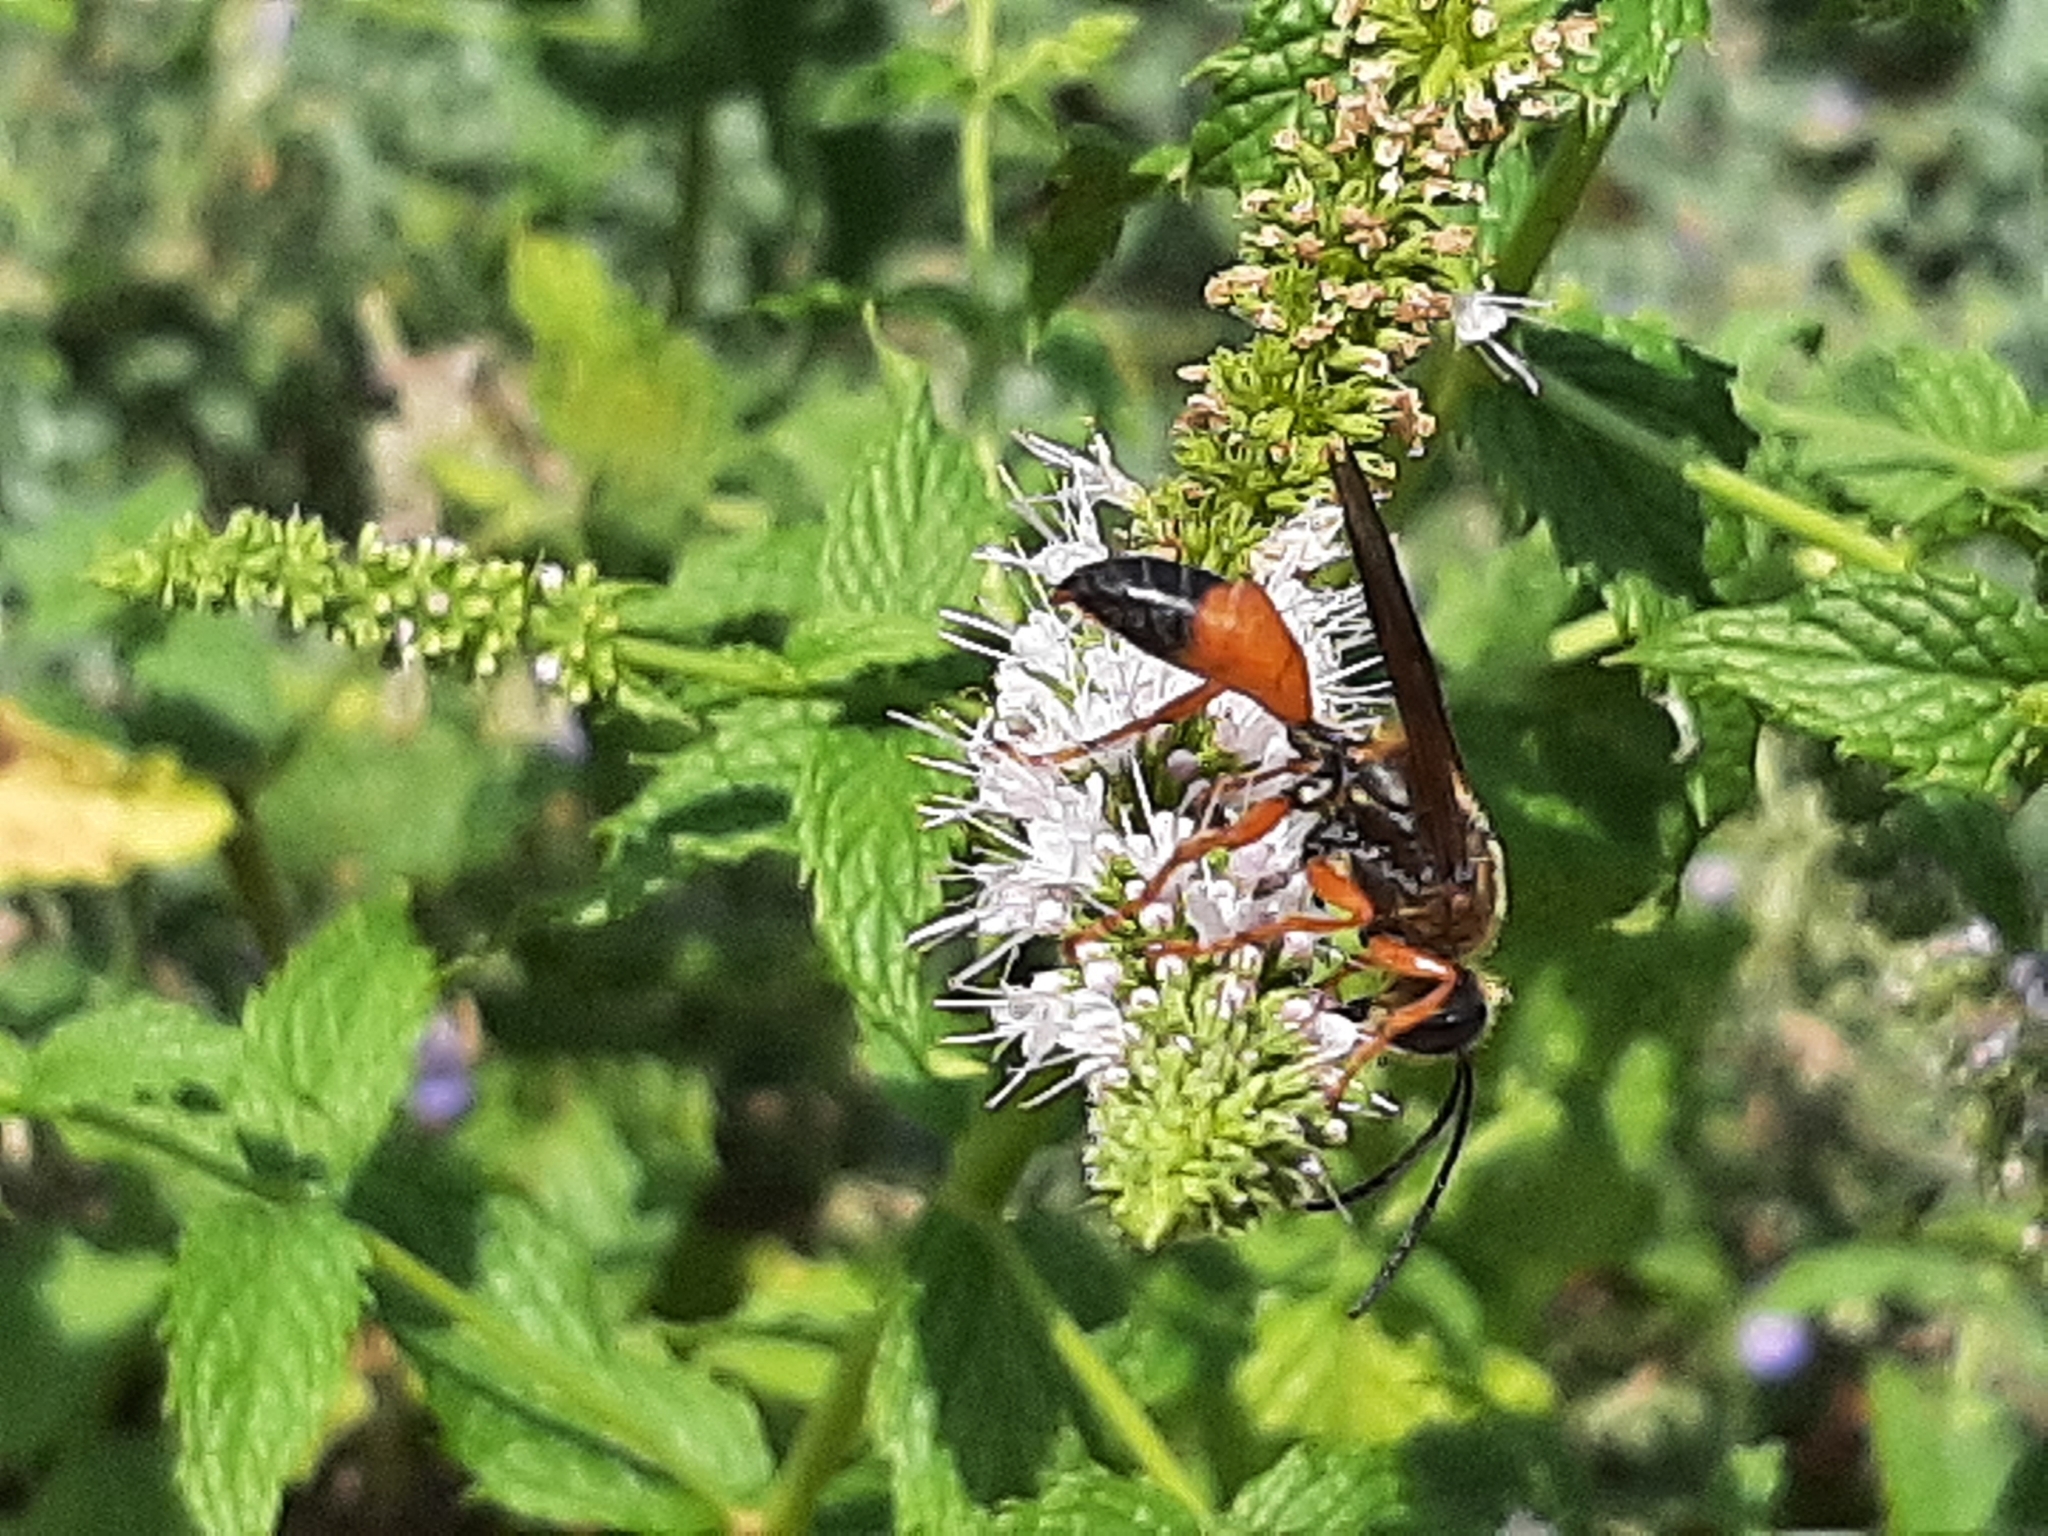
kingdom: Animalia
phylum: Arthropoda
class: Insecta
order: Hymenoptera
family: Sphecidae
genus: Sphex
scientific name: Sphex ichneumoneus
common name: Great golden digger wasp
